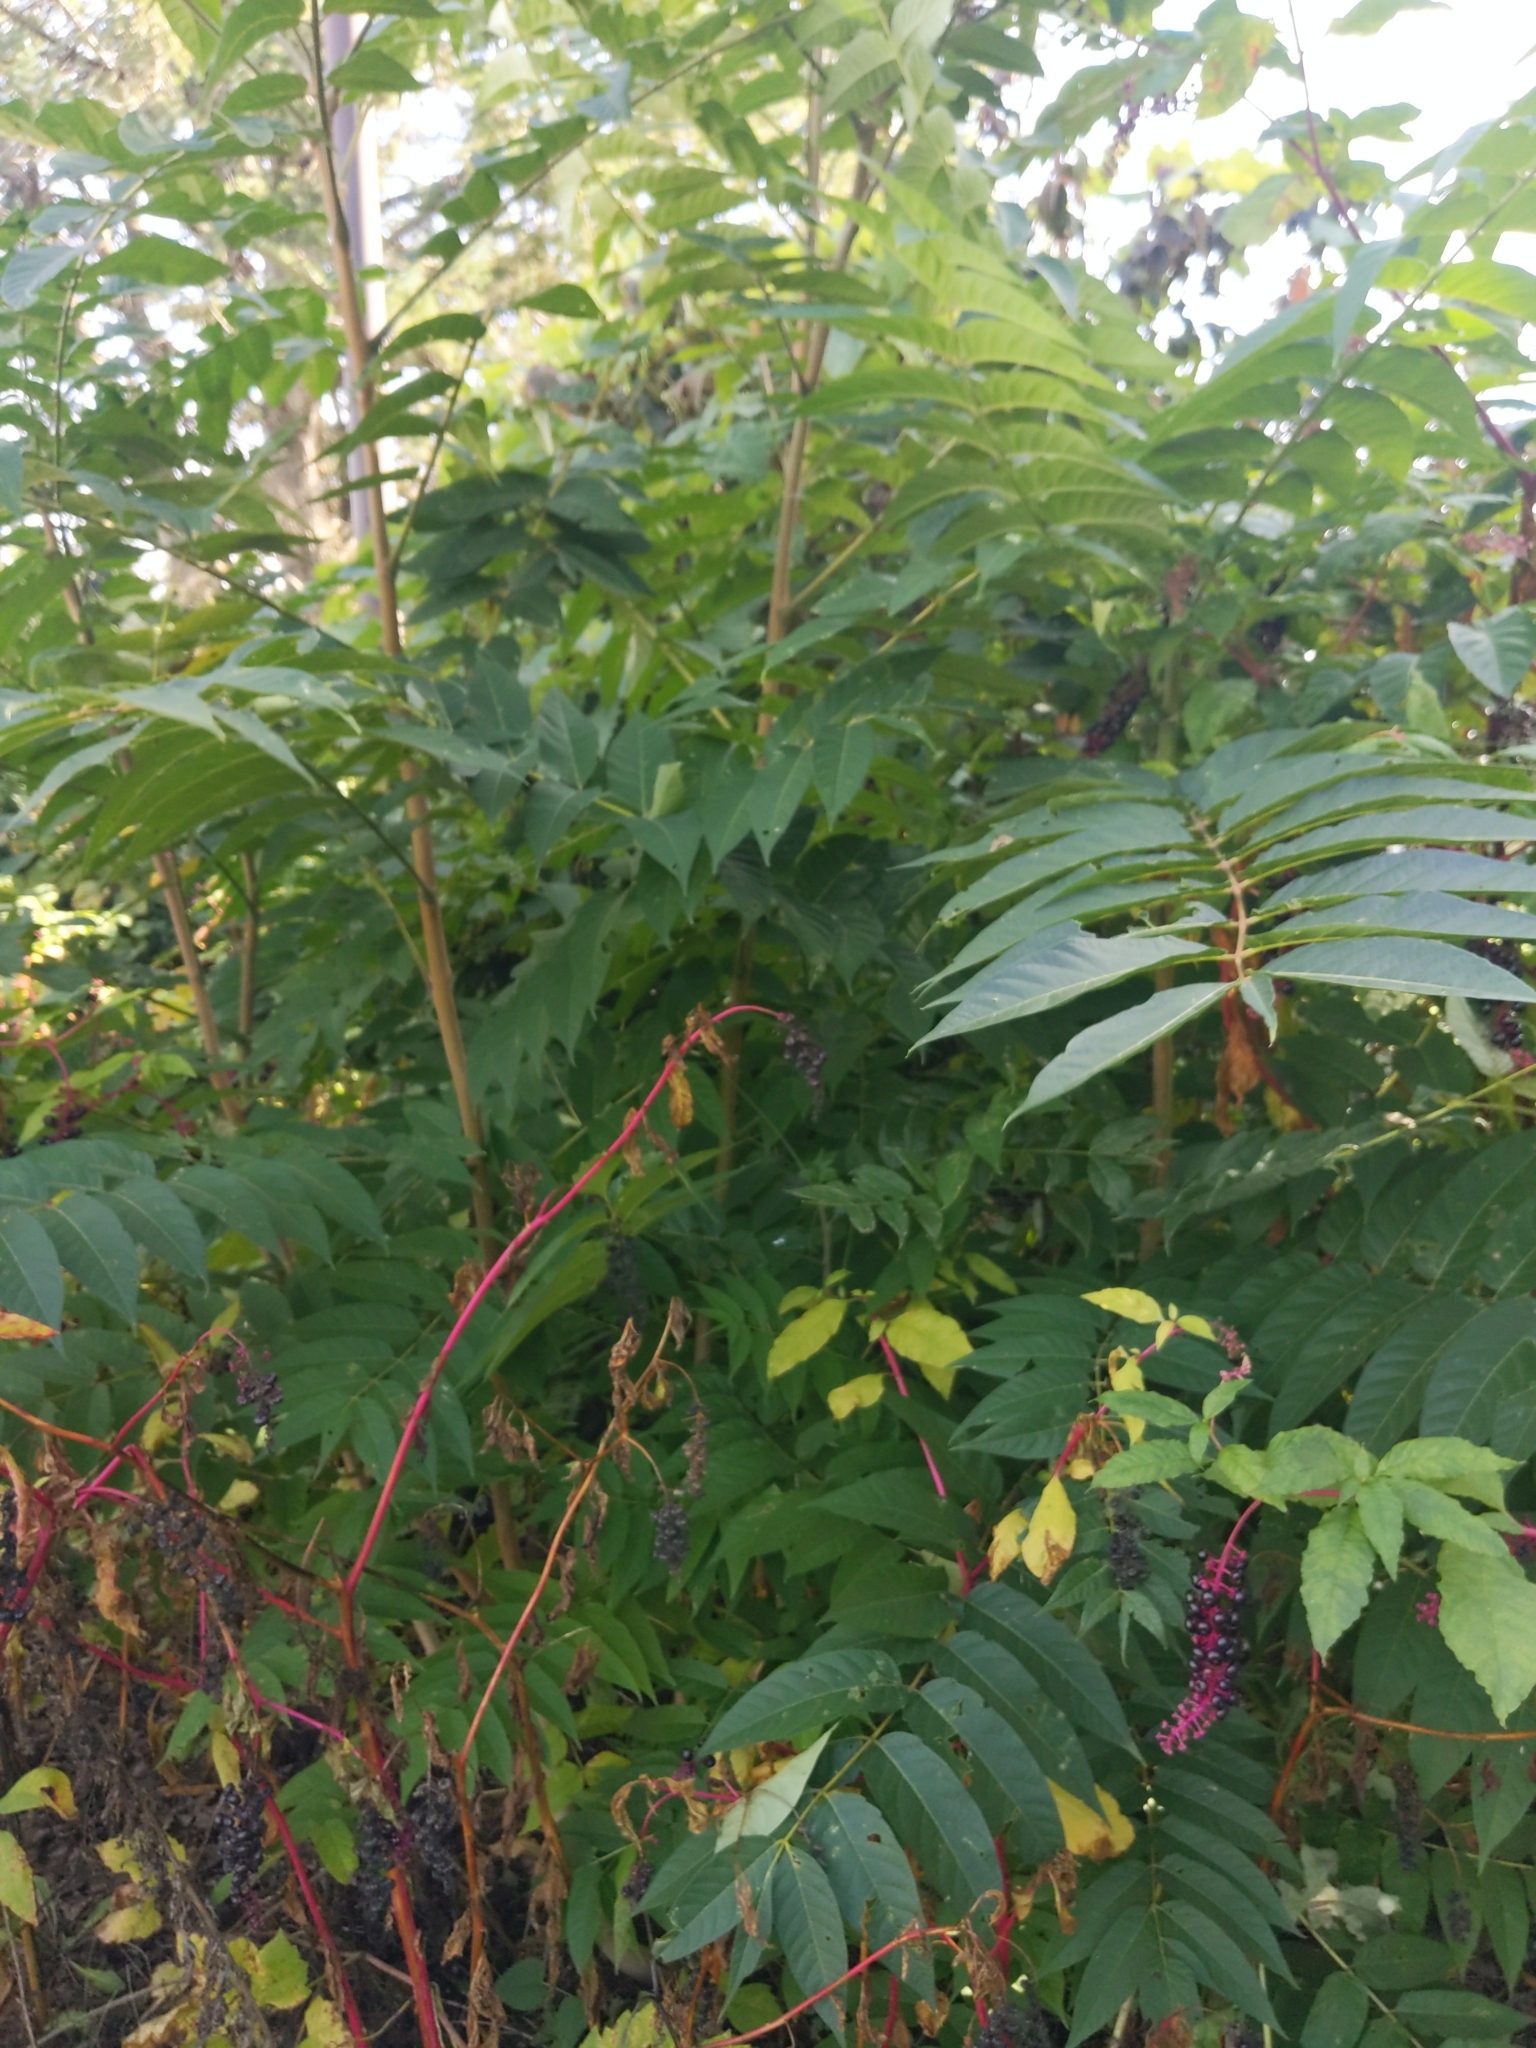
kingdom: Plantae
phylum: Tracheophyta
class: Magnoliopsida
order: Sapindales
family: Simaroubaceae
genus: Ailanthus
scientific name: Ailanthus altissima
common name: Tree-of-heaven
